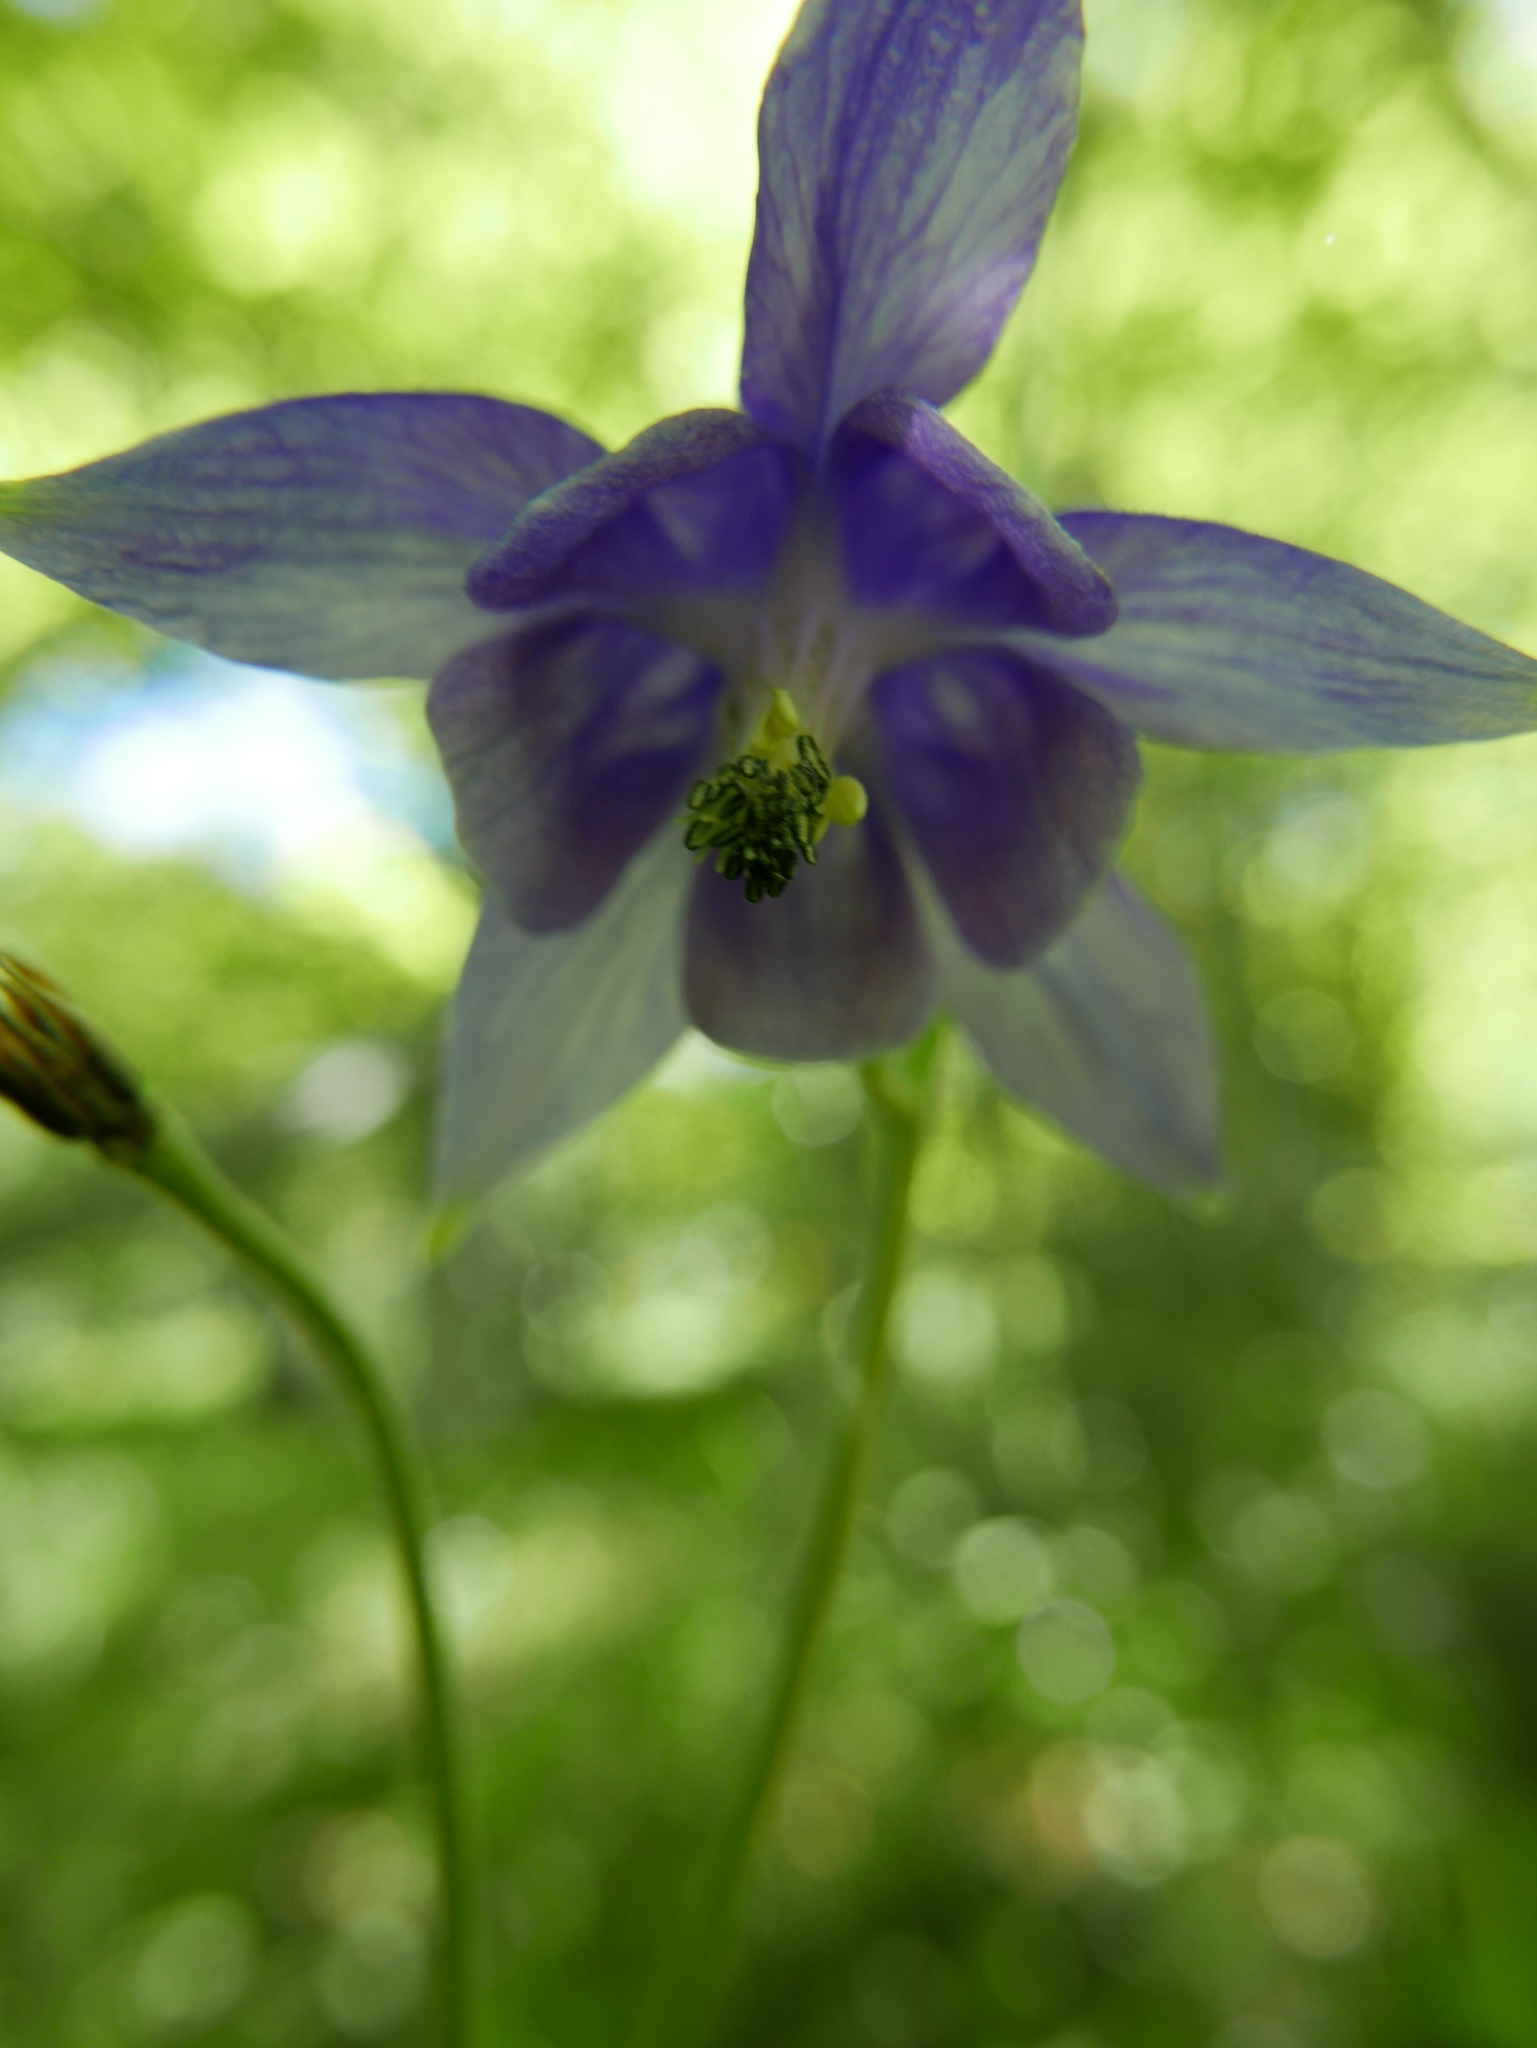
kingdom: Plantae
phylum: Tracheophyta
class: Magnoliopsida
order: Ranunculales
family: Ranunculaceae
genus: Aquilegia
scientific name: Aquilegia vulgaris
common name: Columbine
